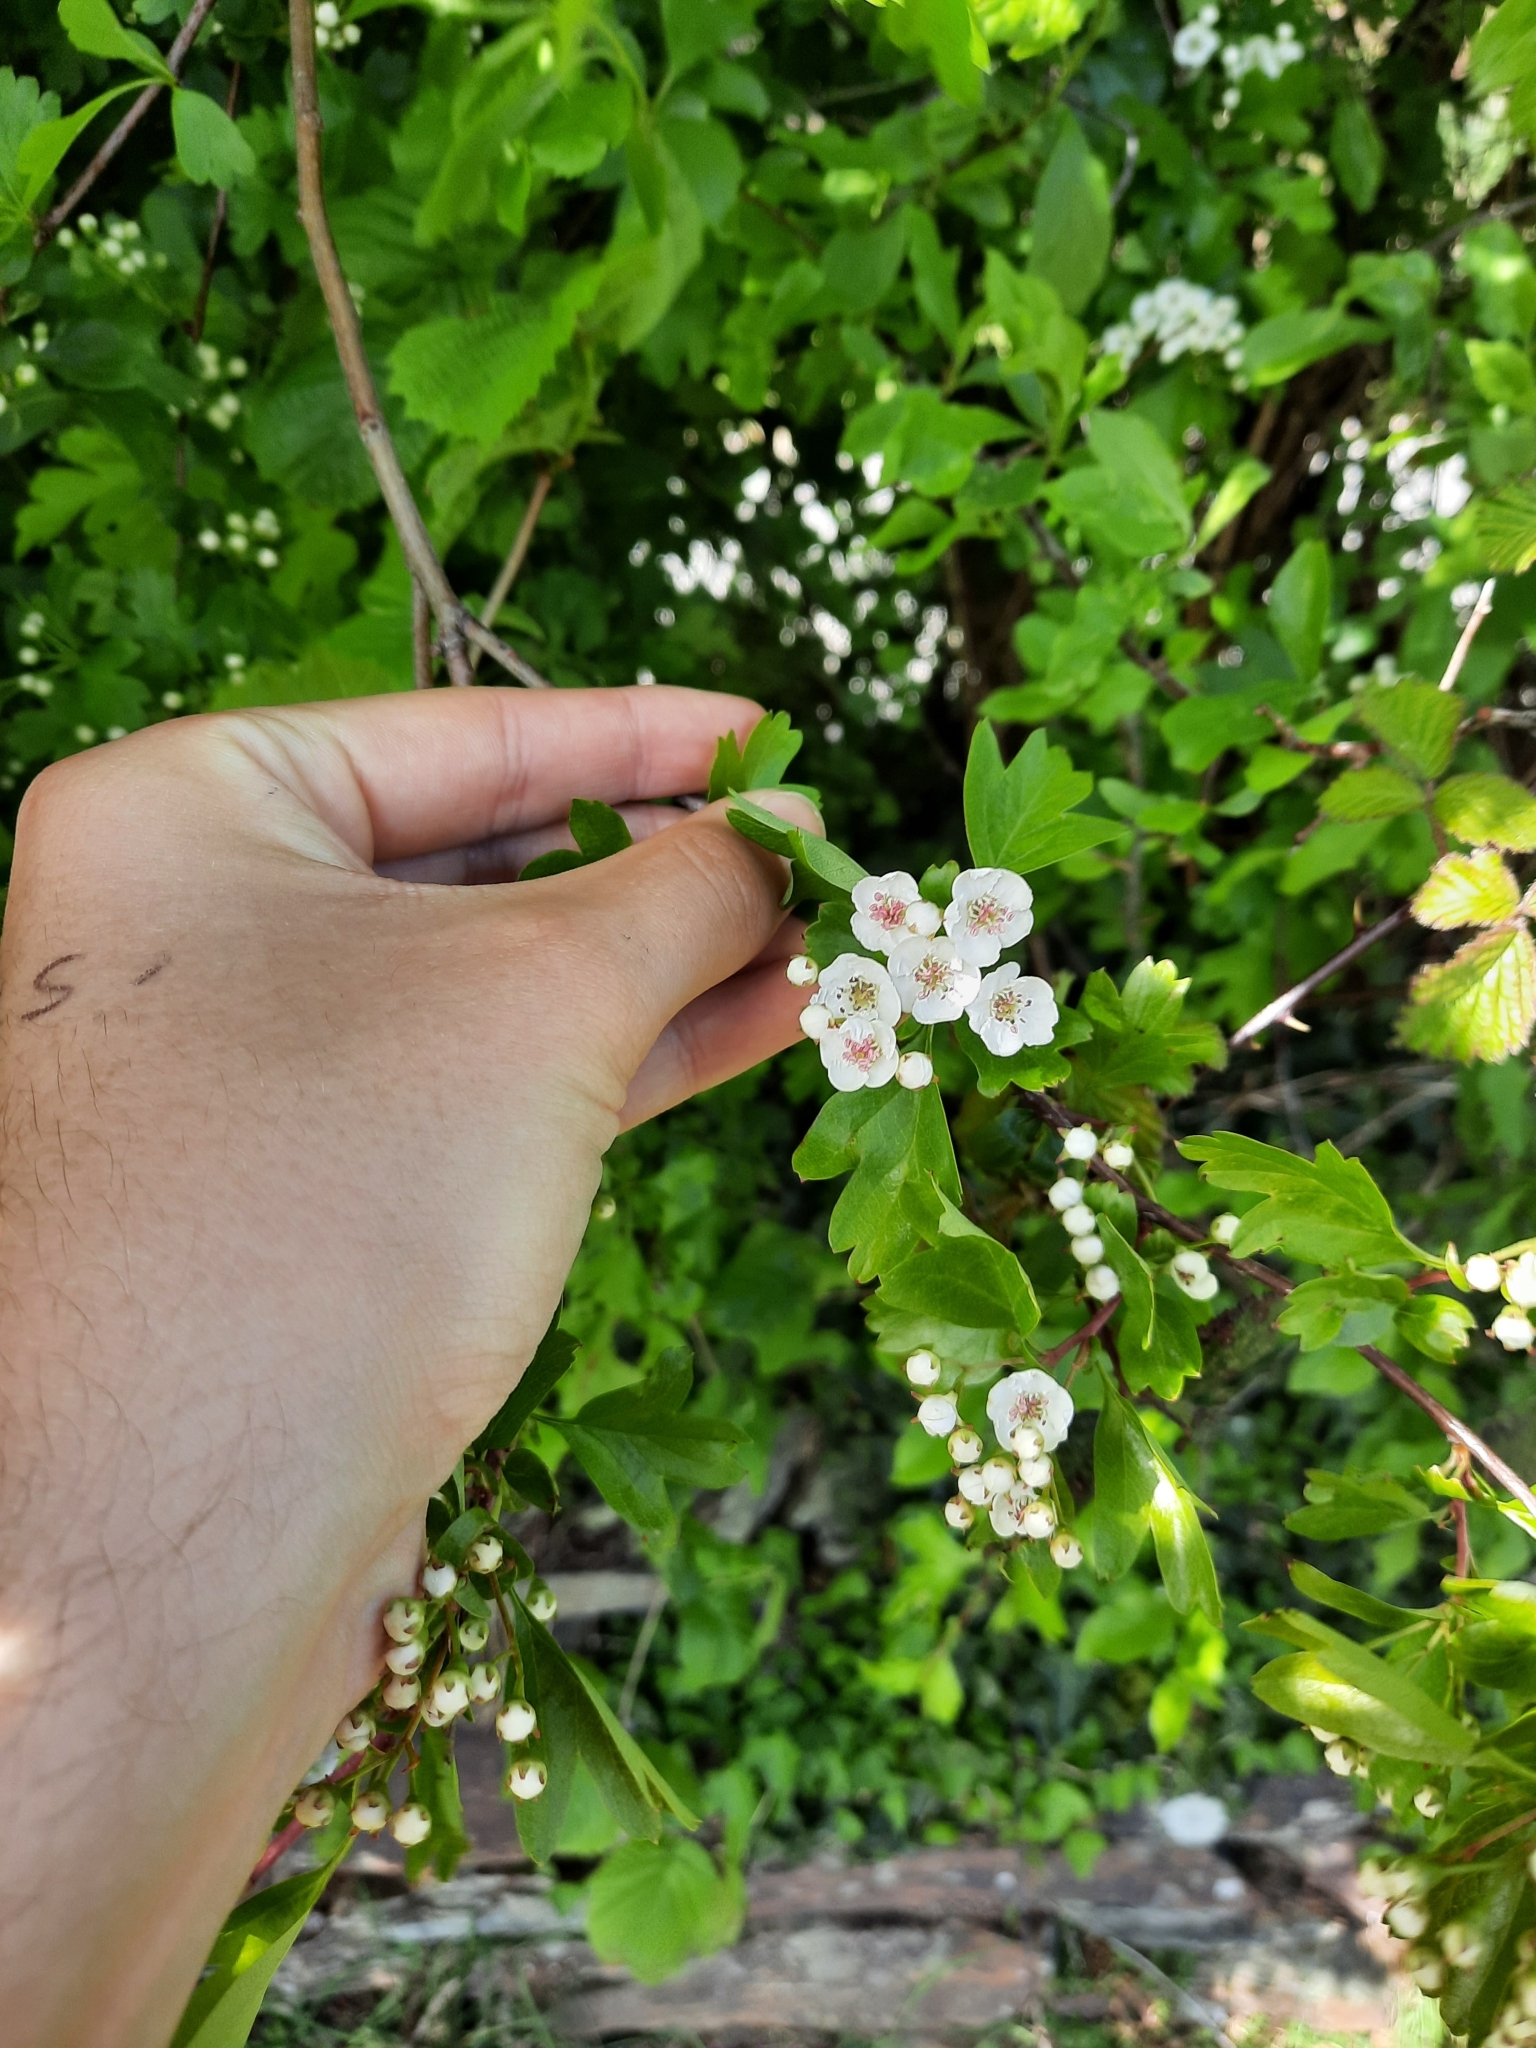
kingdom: Plantae
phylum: Tracheophyta
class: Magnoliopsida
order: Rosales
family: Rosaceae
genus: Crataegus
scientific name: Crataegus monogyna
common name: Hawthorn
